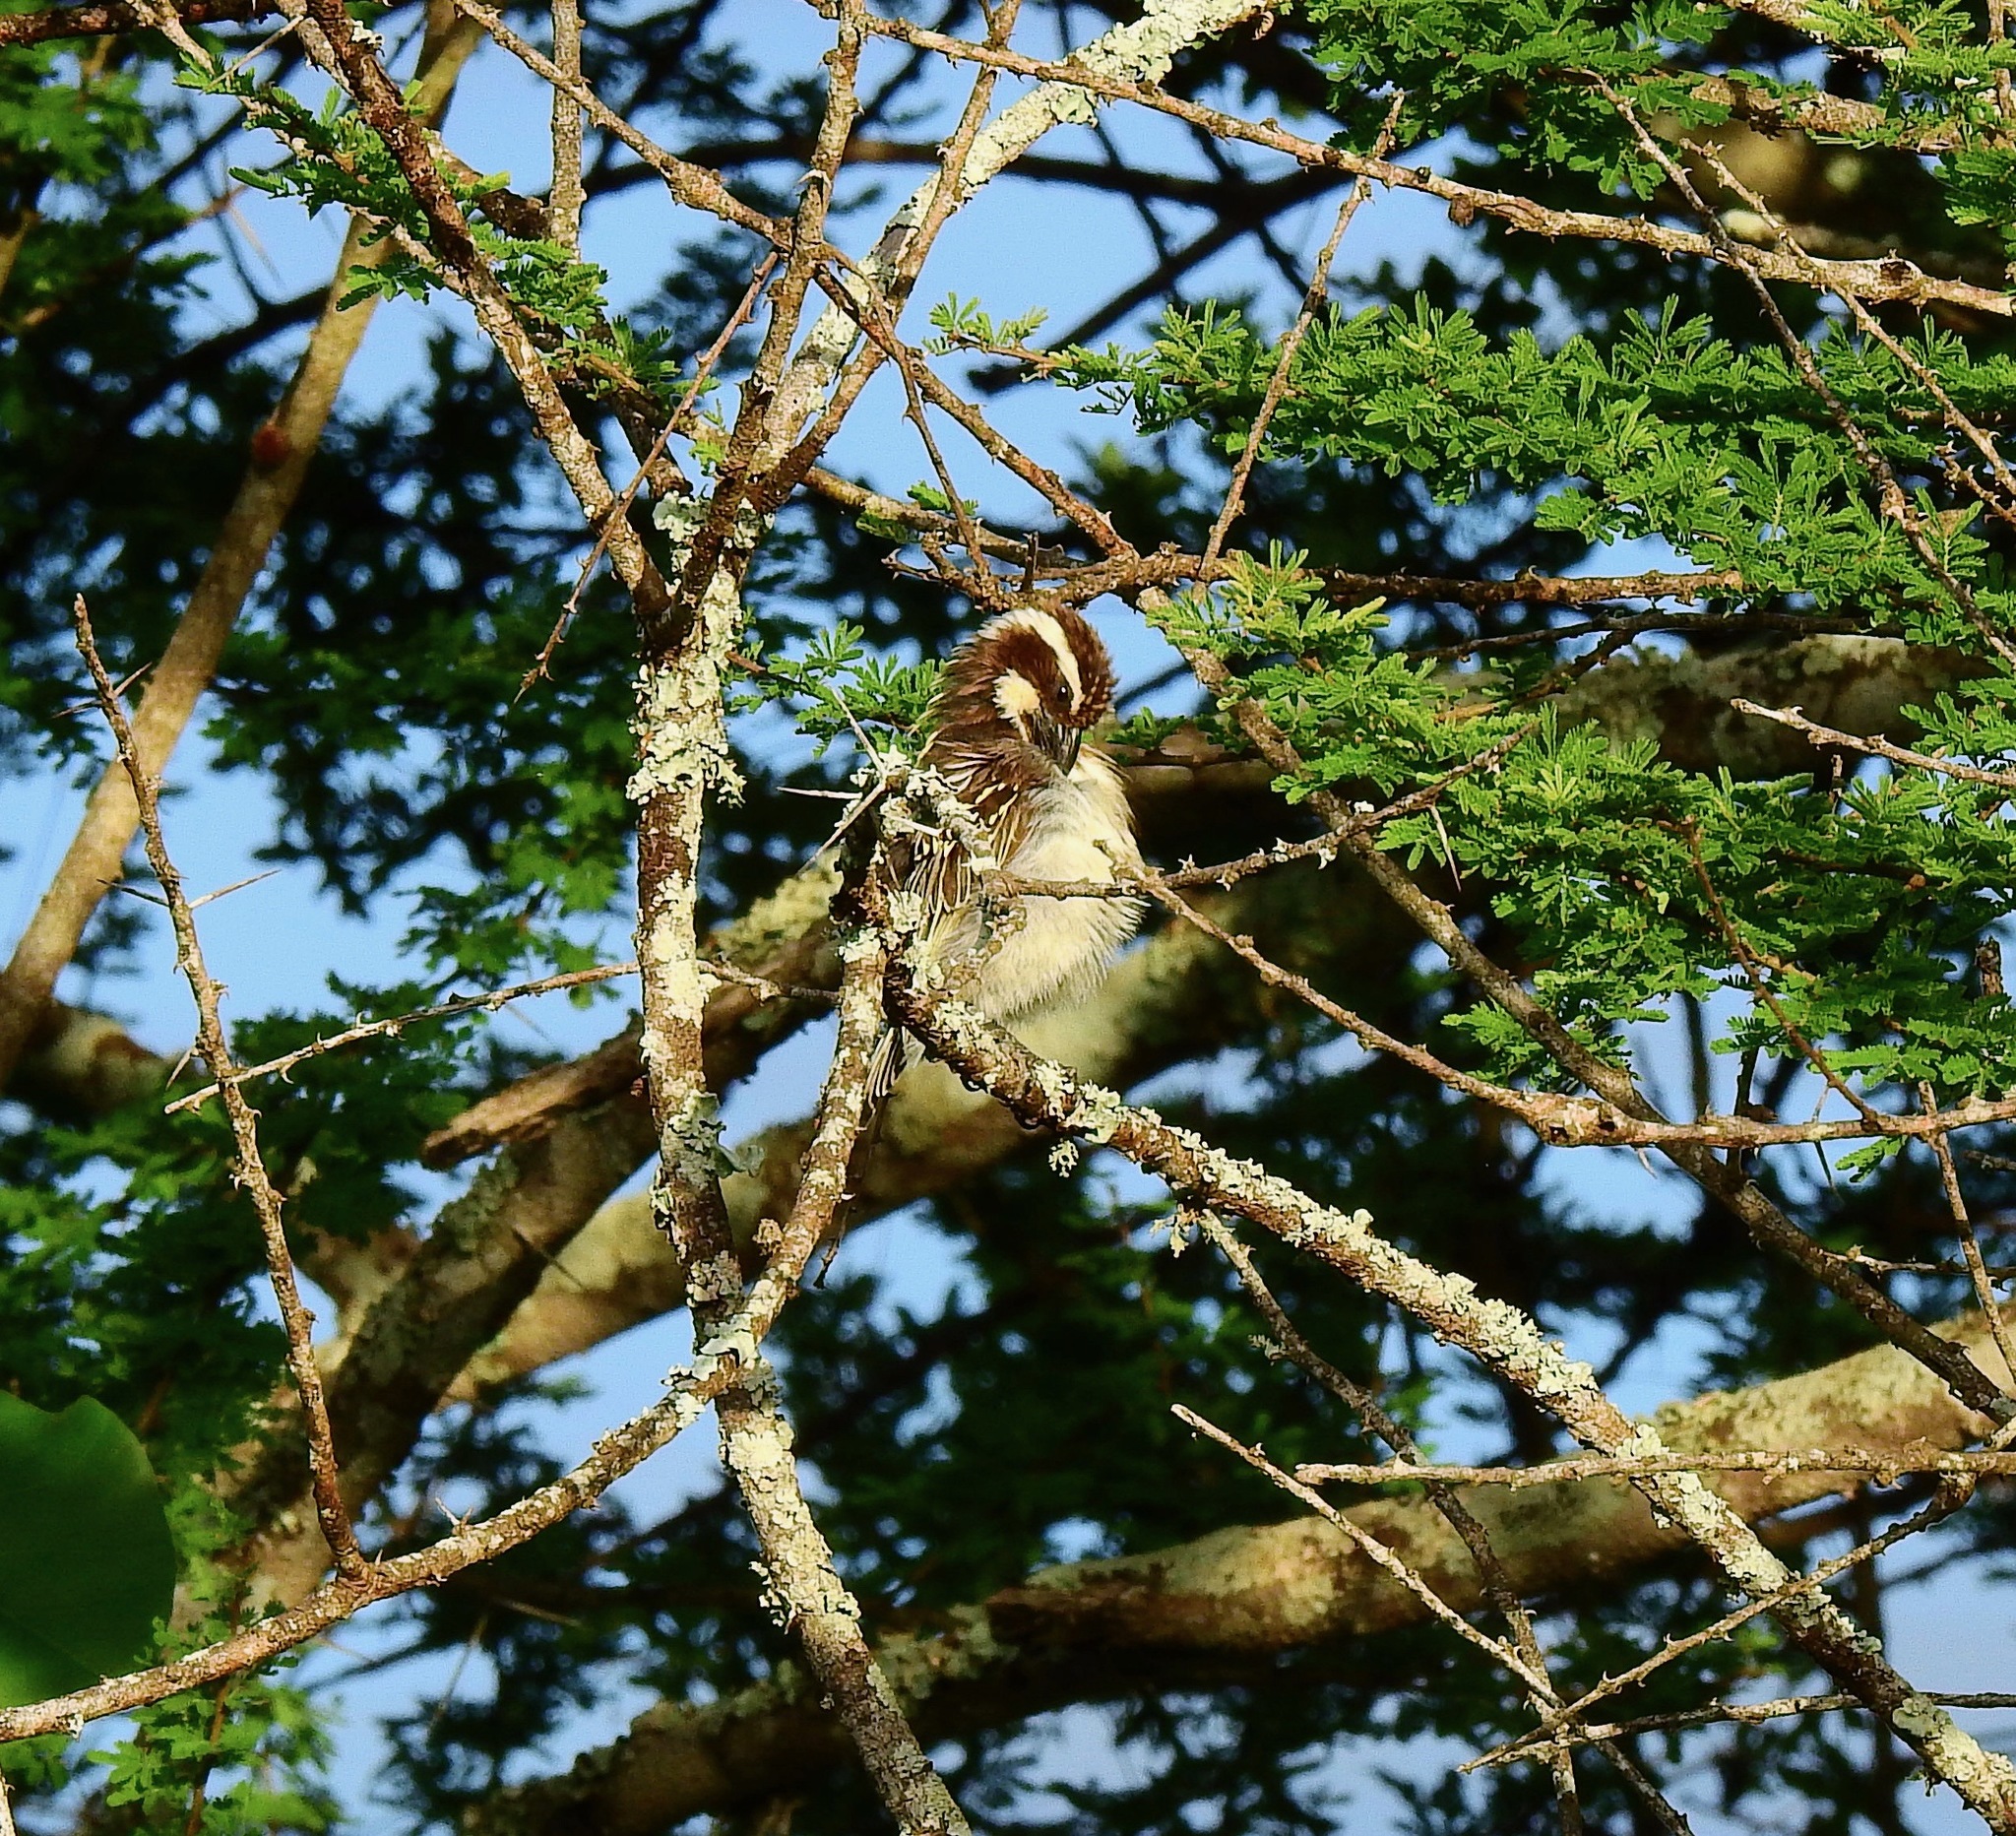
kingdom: Animalia
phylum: Chordata
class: Aves
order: Passeriformes
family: Passeridae
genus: Plocepasser
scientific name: Plocepasser mahali
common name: White-browed sparrow-weaver
